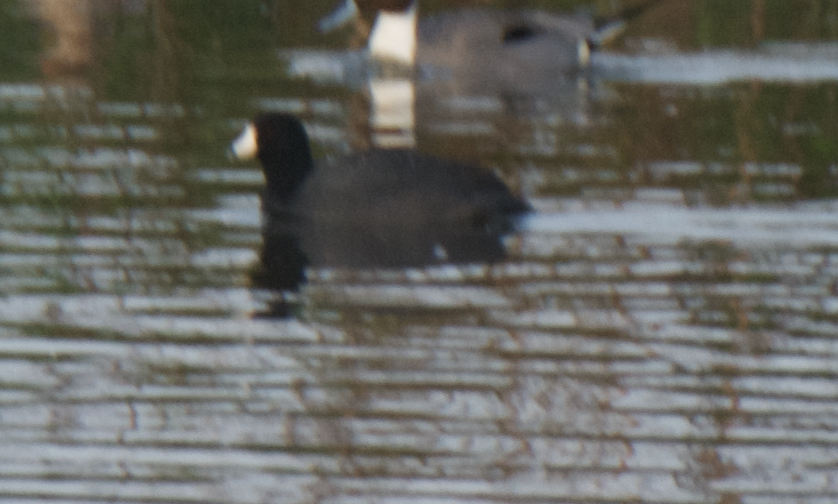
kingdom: Animalia
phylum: Chordata
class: Aves
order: Gruiformes
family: Rallidae
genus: Fulica
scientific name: Fulica americana
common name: American coot
